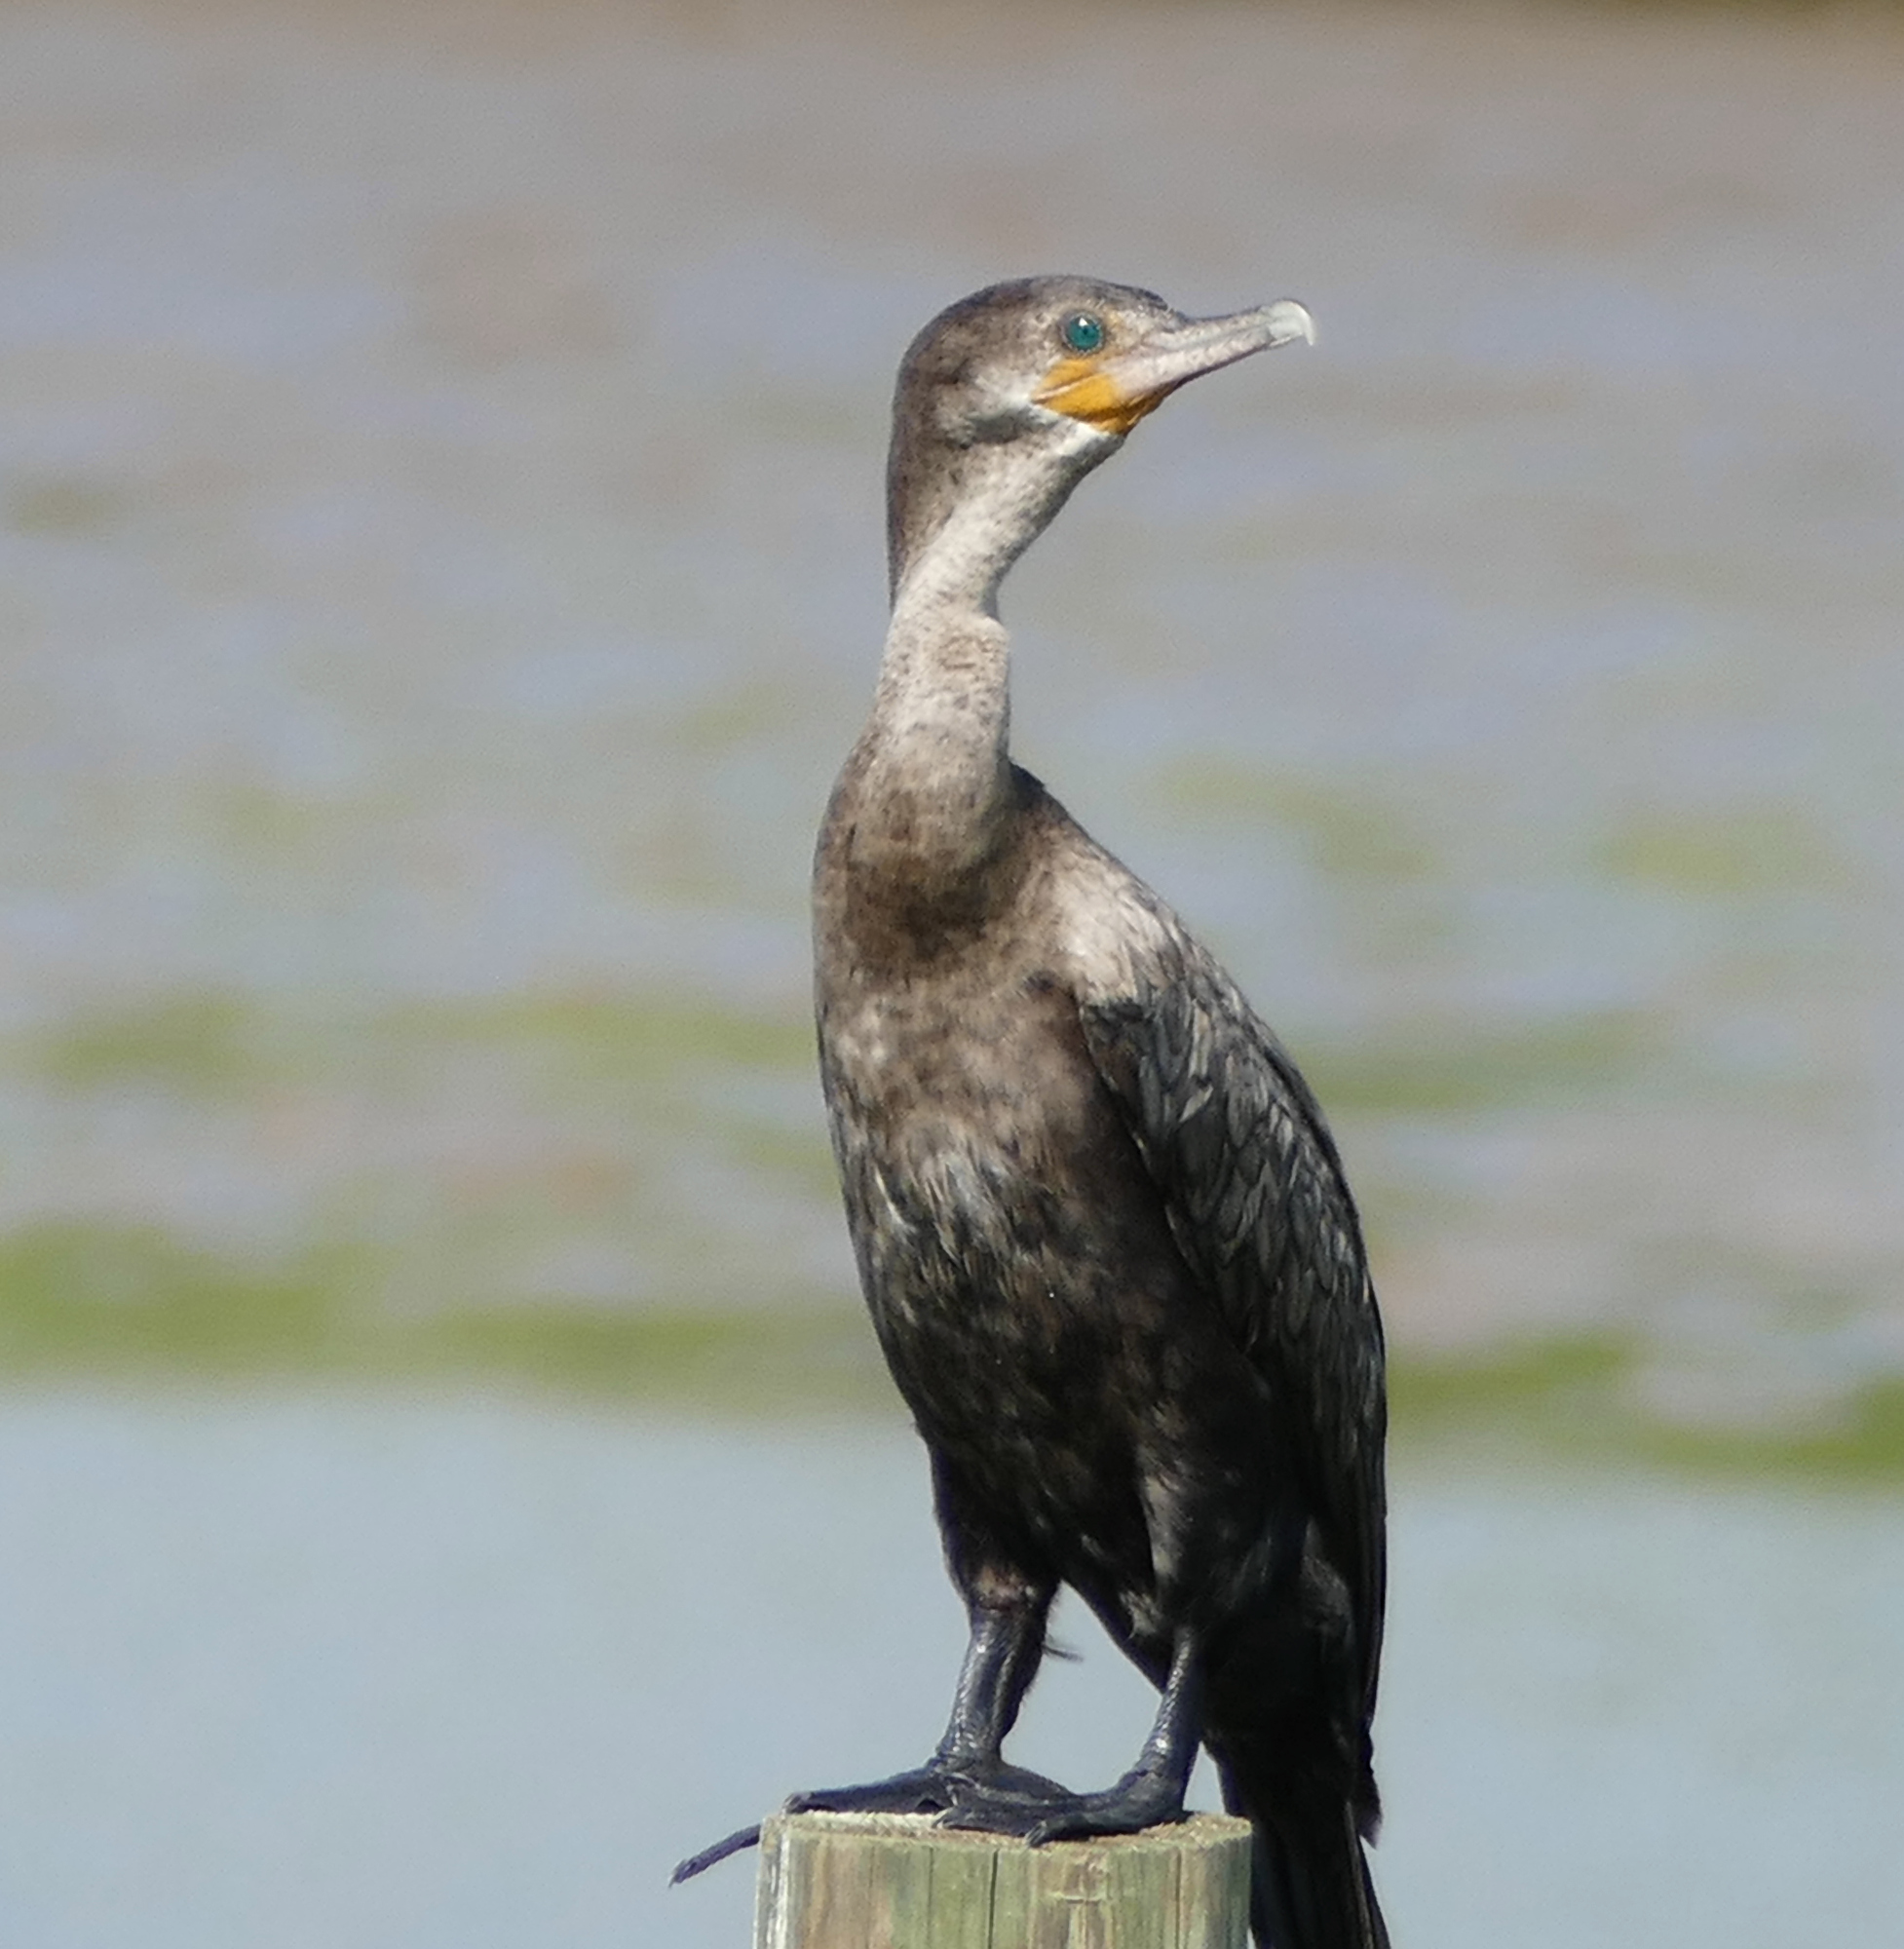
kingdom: Animalia
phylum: Chordata
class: Aves
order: Suliformes
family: Phalacrocoracidae
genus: Phalacrocorax
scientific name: Phalacrocorax brasilianus
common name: Neotropic cormorant
